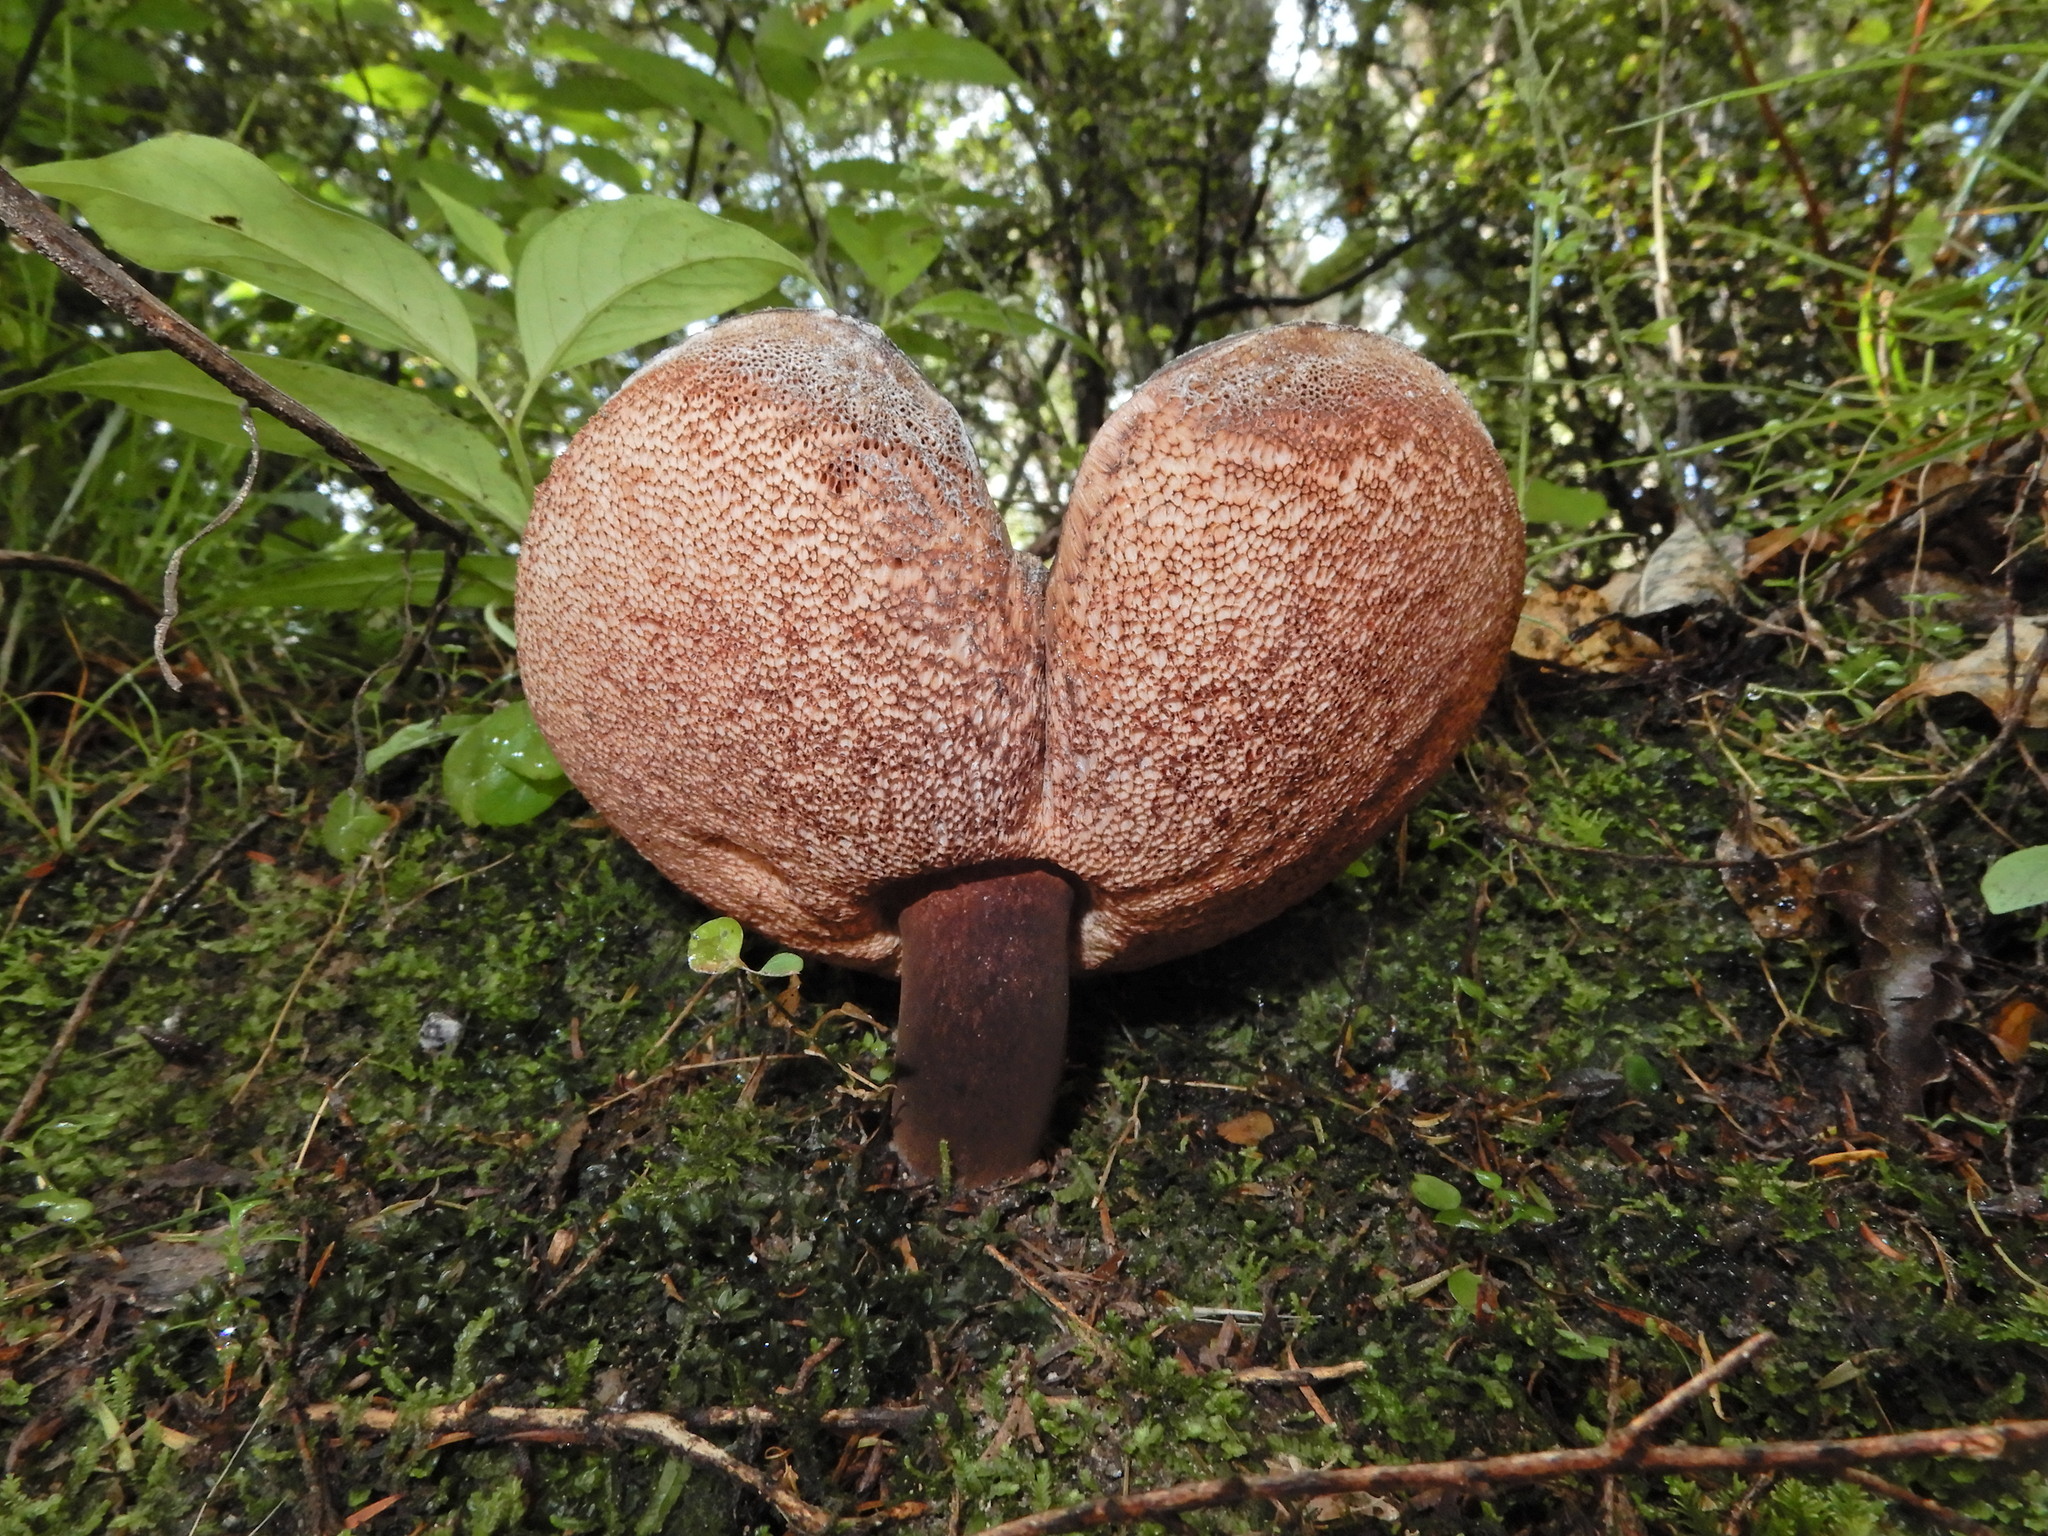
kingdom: Fungi
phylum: Basidiomycota
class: Agaricomycetes
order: Boletales
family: Boletaceae
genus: Porphyrellus
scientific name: Porphyrellus formosus
